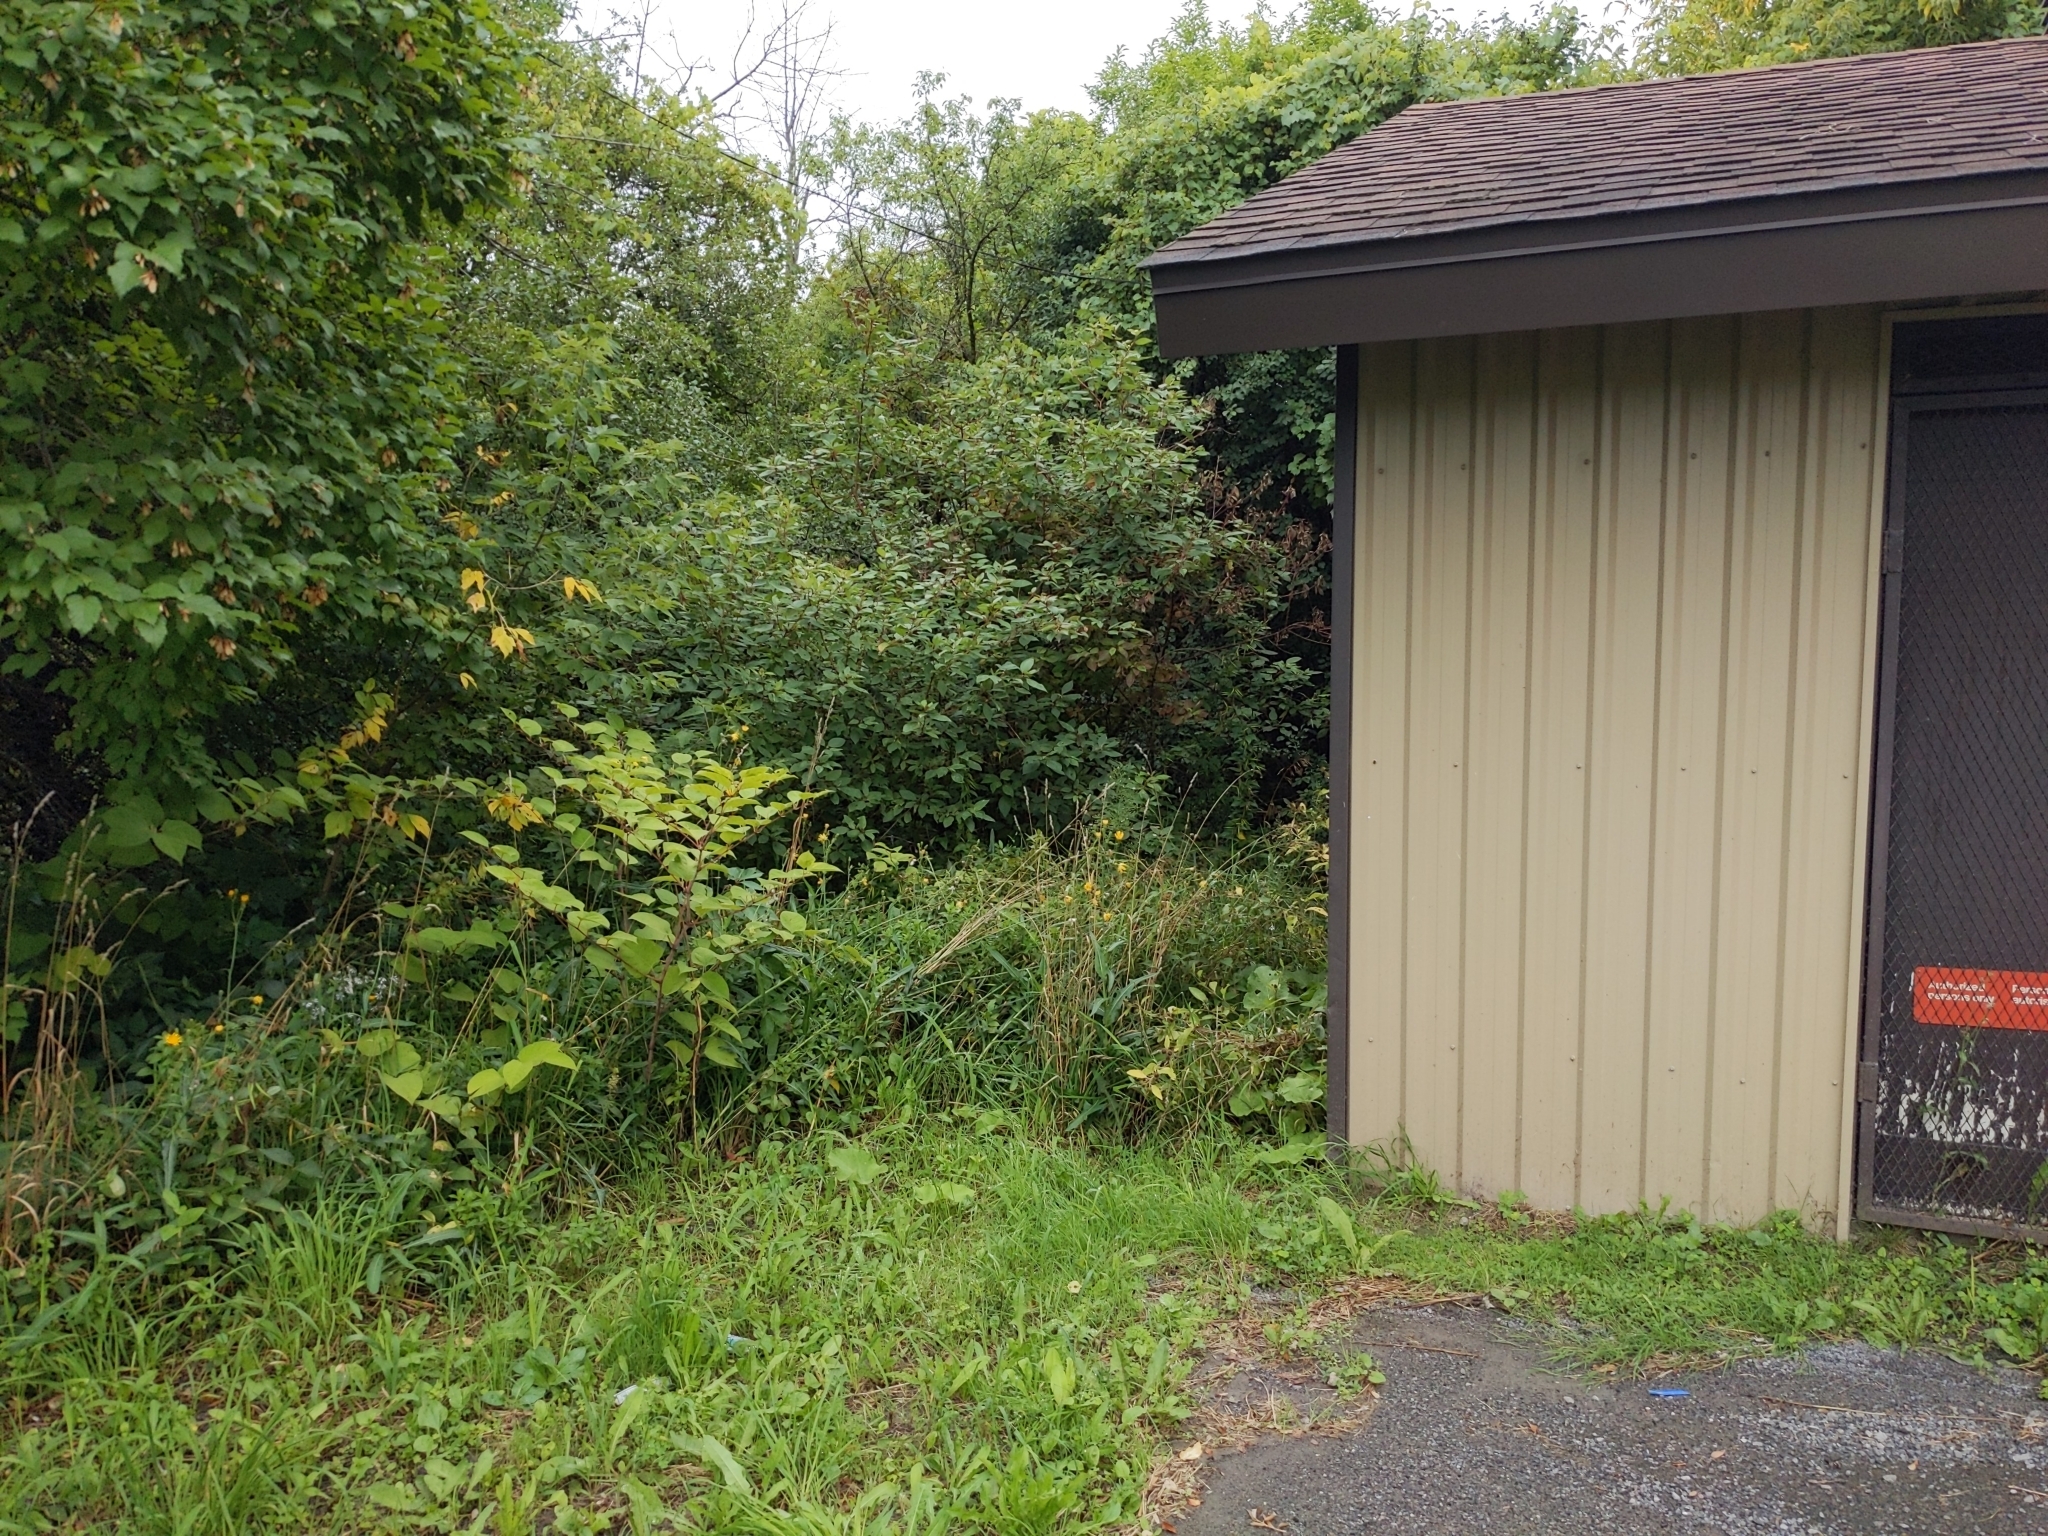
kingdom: Plantae
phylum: Tracheophyta
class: Magnoliopsida
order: Caryophyllales
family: Polygonaceae
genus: Reynoutria
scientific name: Reynoutria japonica
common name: Japanese knotweed
